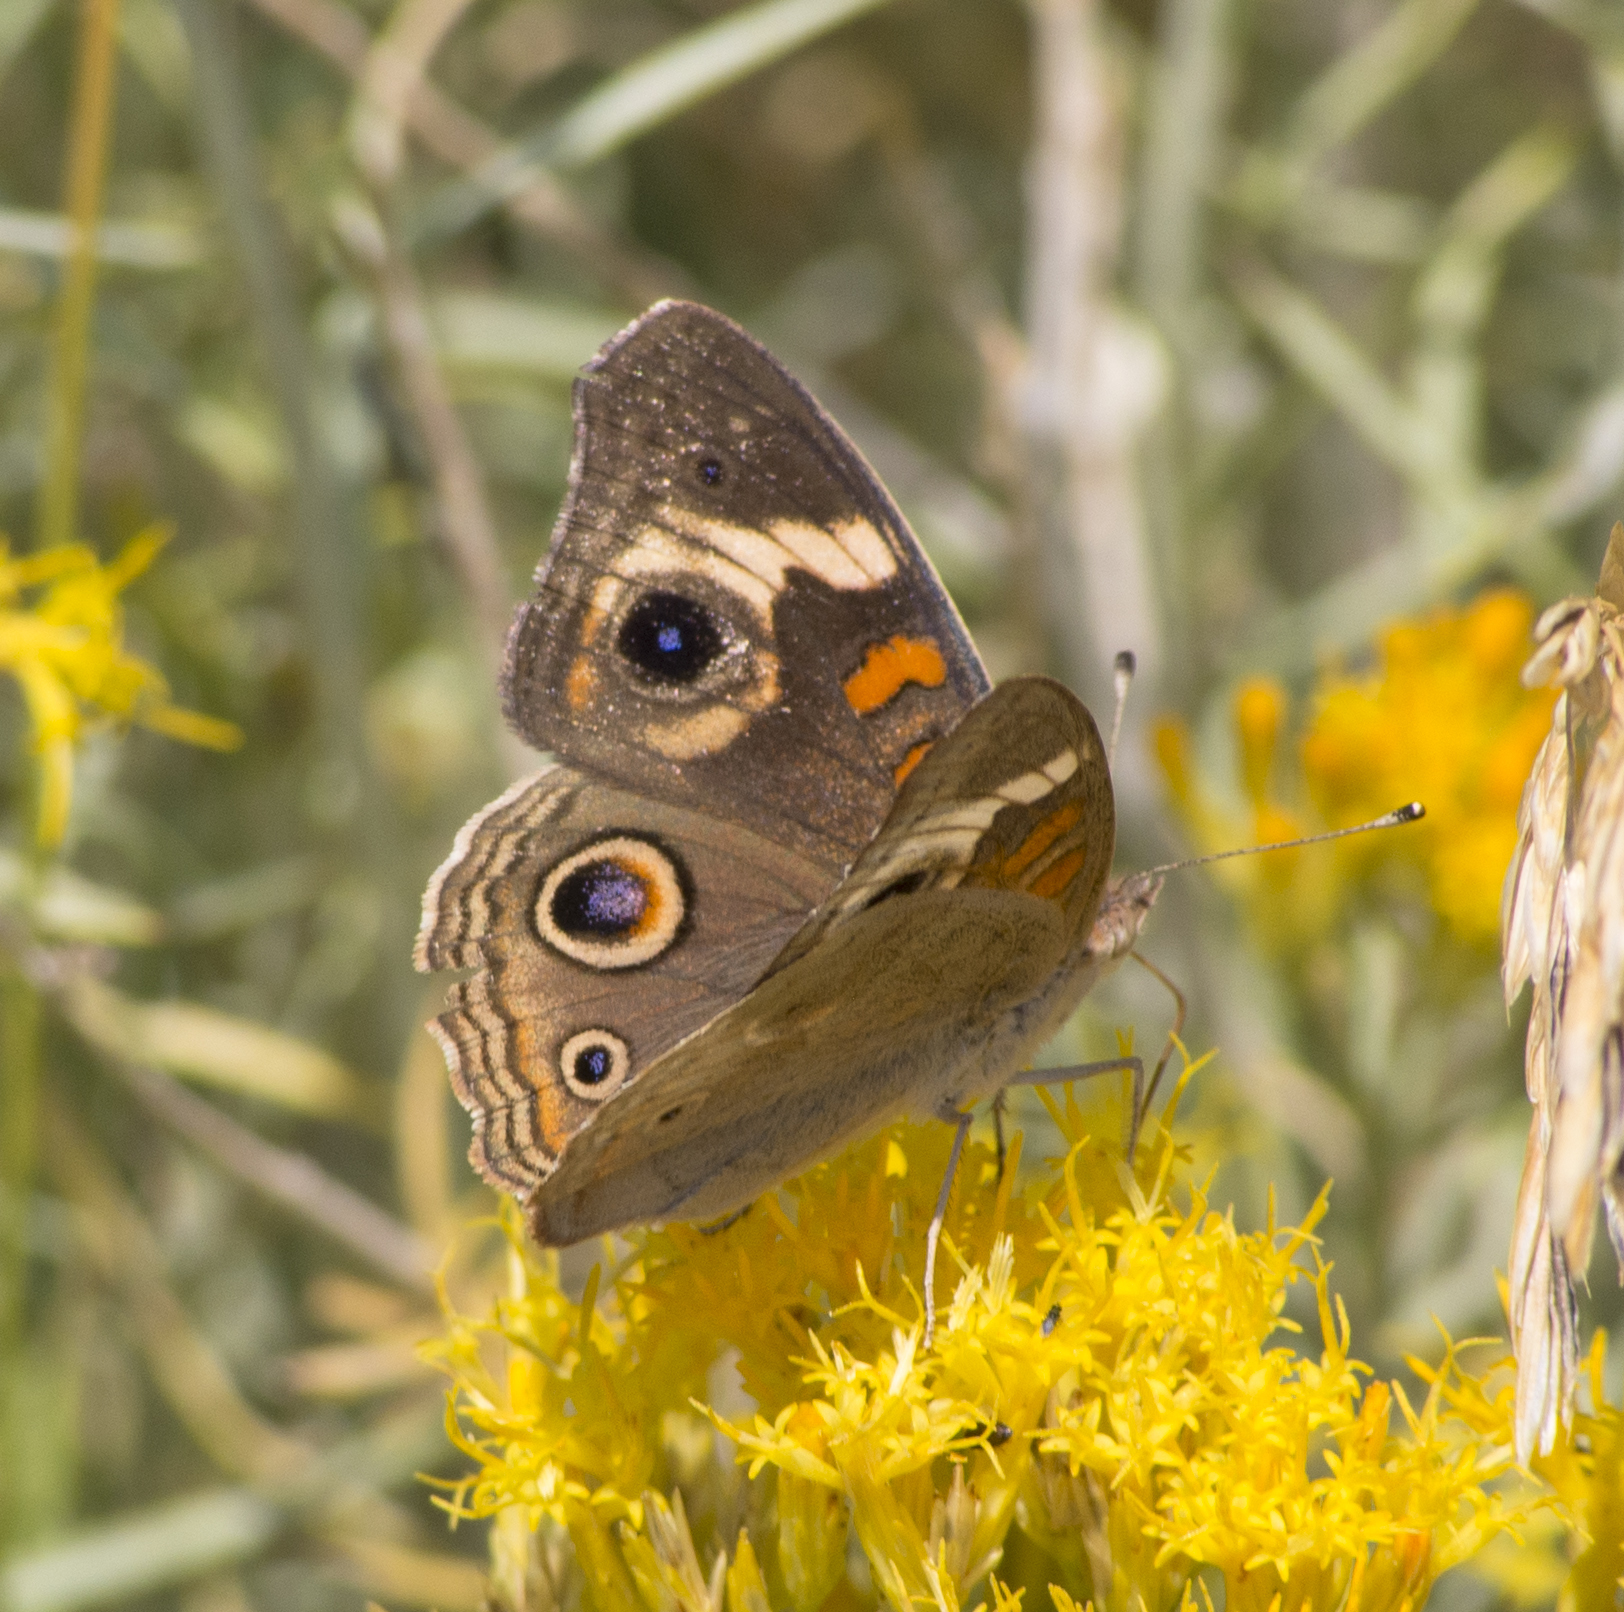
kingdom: Animalia
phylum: Arthropoda
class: Insecta
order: Lepidoptera
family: Nymphalidae
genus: Junonia
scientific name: Junonia grisea
